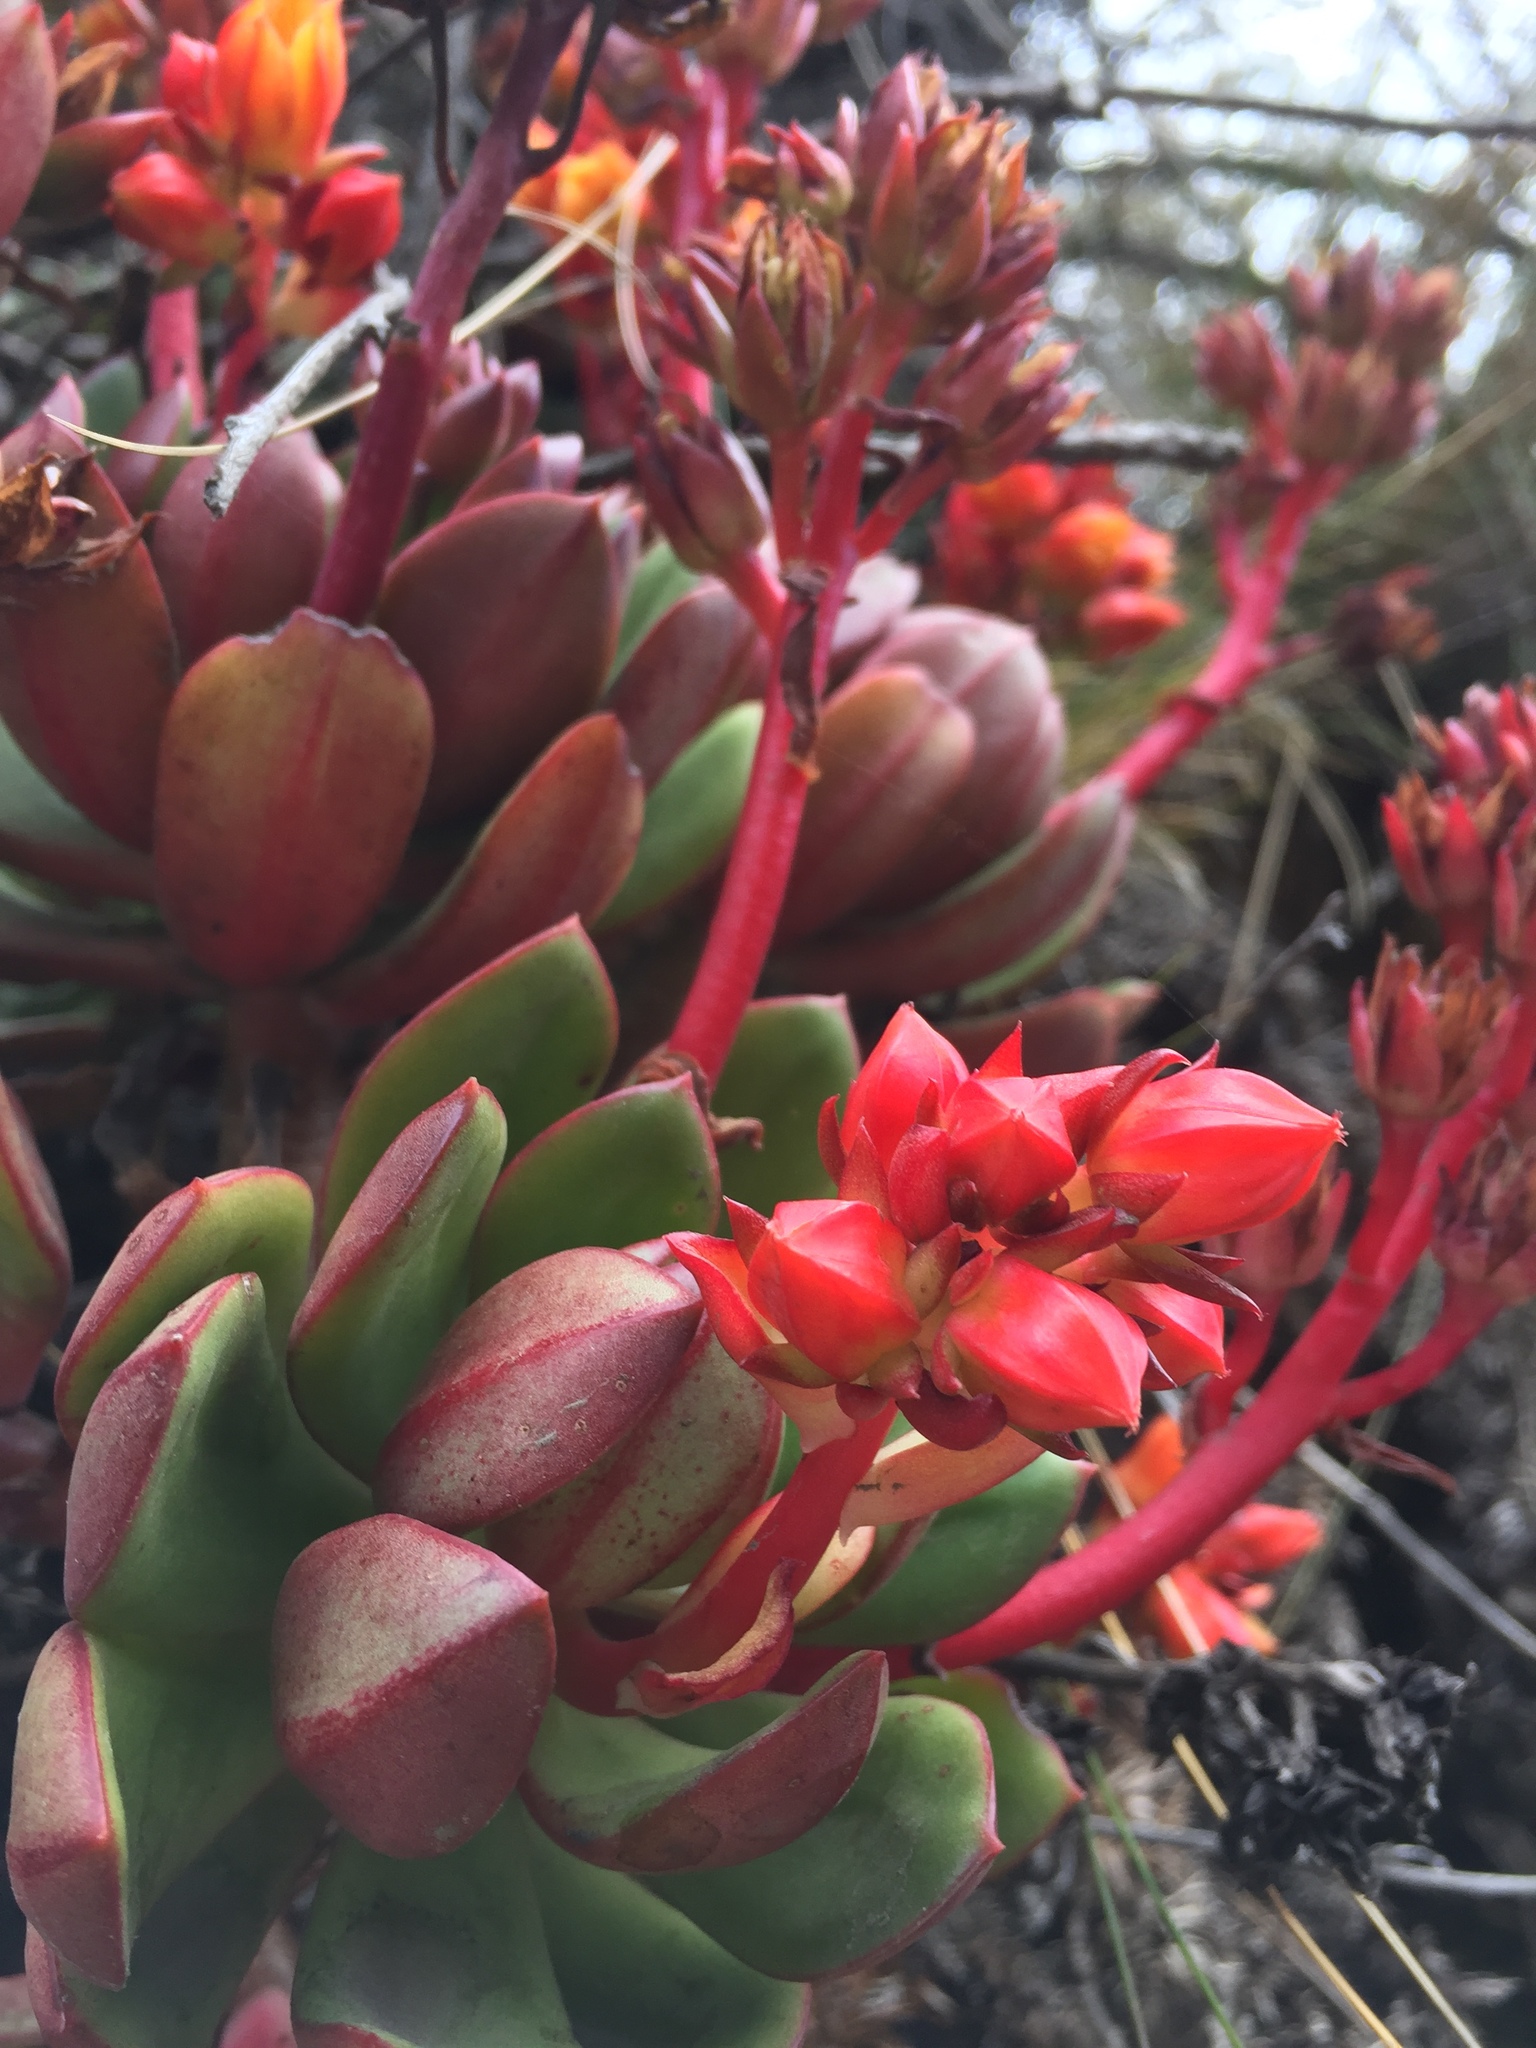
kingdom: Plantae
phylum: Tracheophyta
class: Magnoliopsida
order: Saxifragales
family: Crassulaceae
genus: Echeveria
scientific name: Echeveria quitensis
